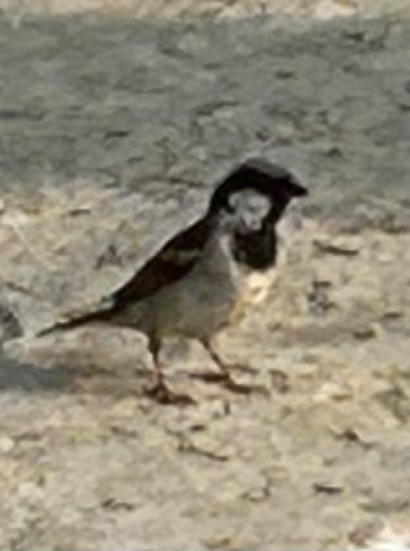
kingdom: Animalia
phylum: Chordata
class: Aves
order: Passeriformes
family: Passeridae
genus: Passer
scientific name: Passer domesticus
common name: House sparrow
